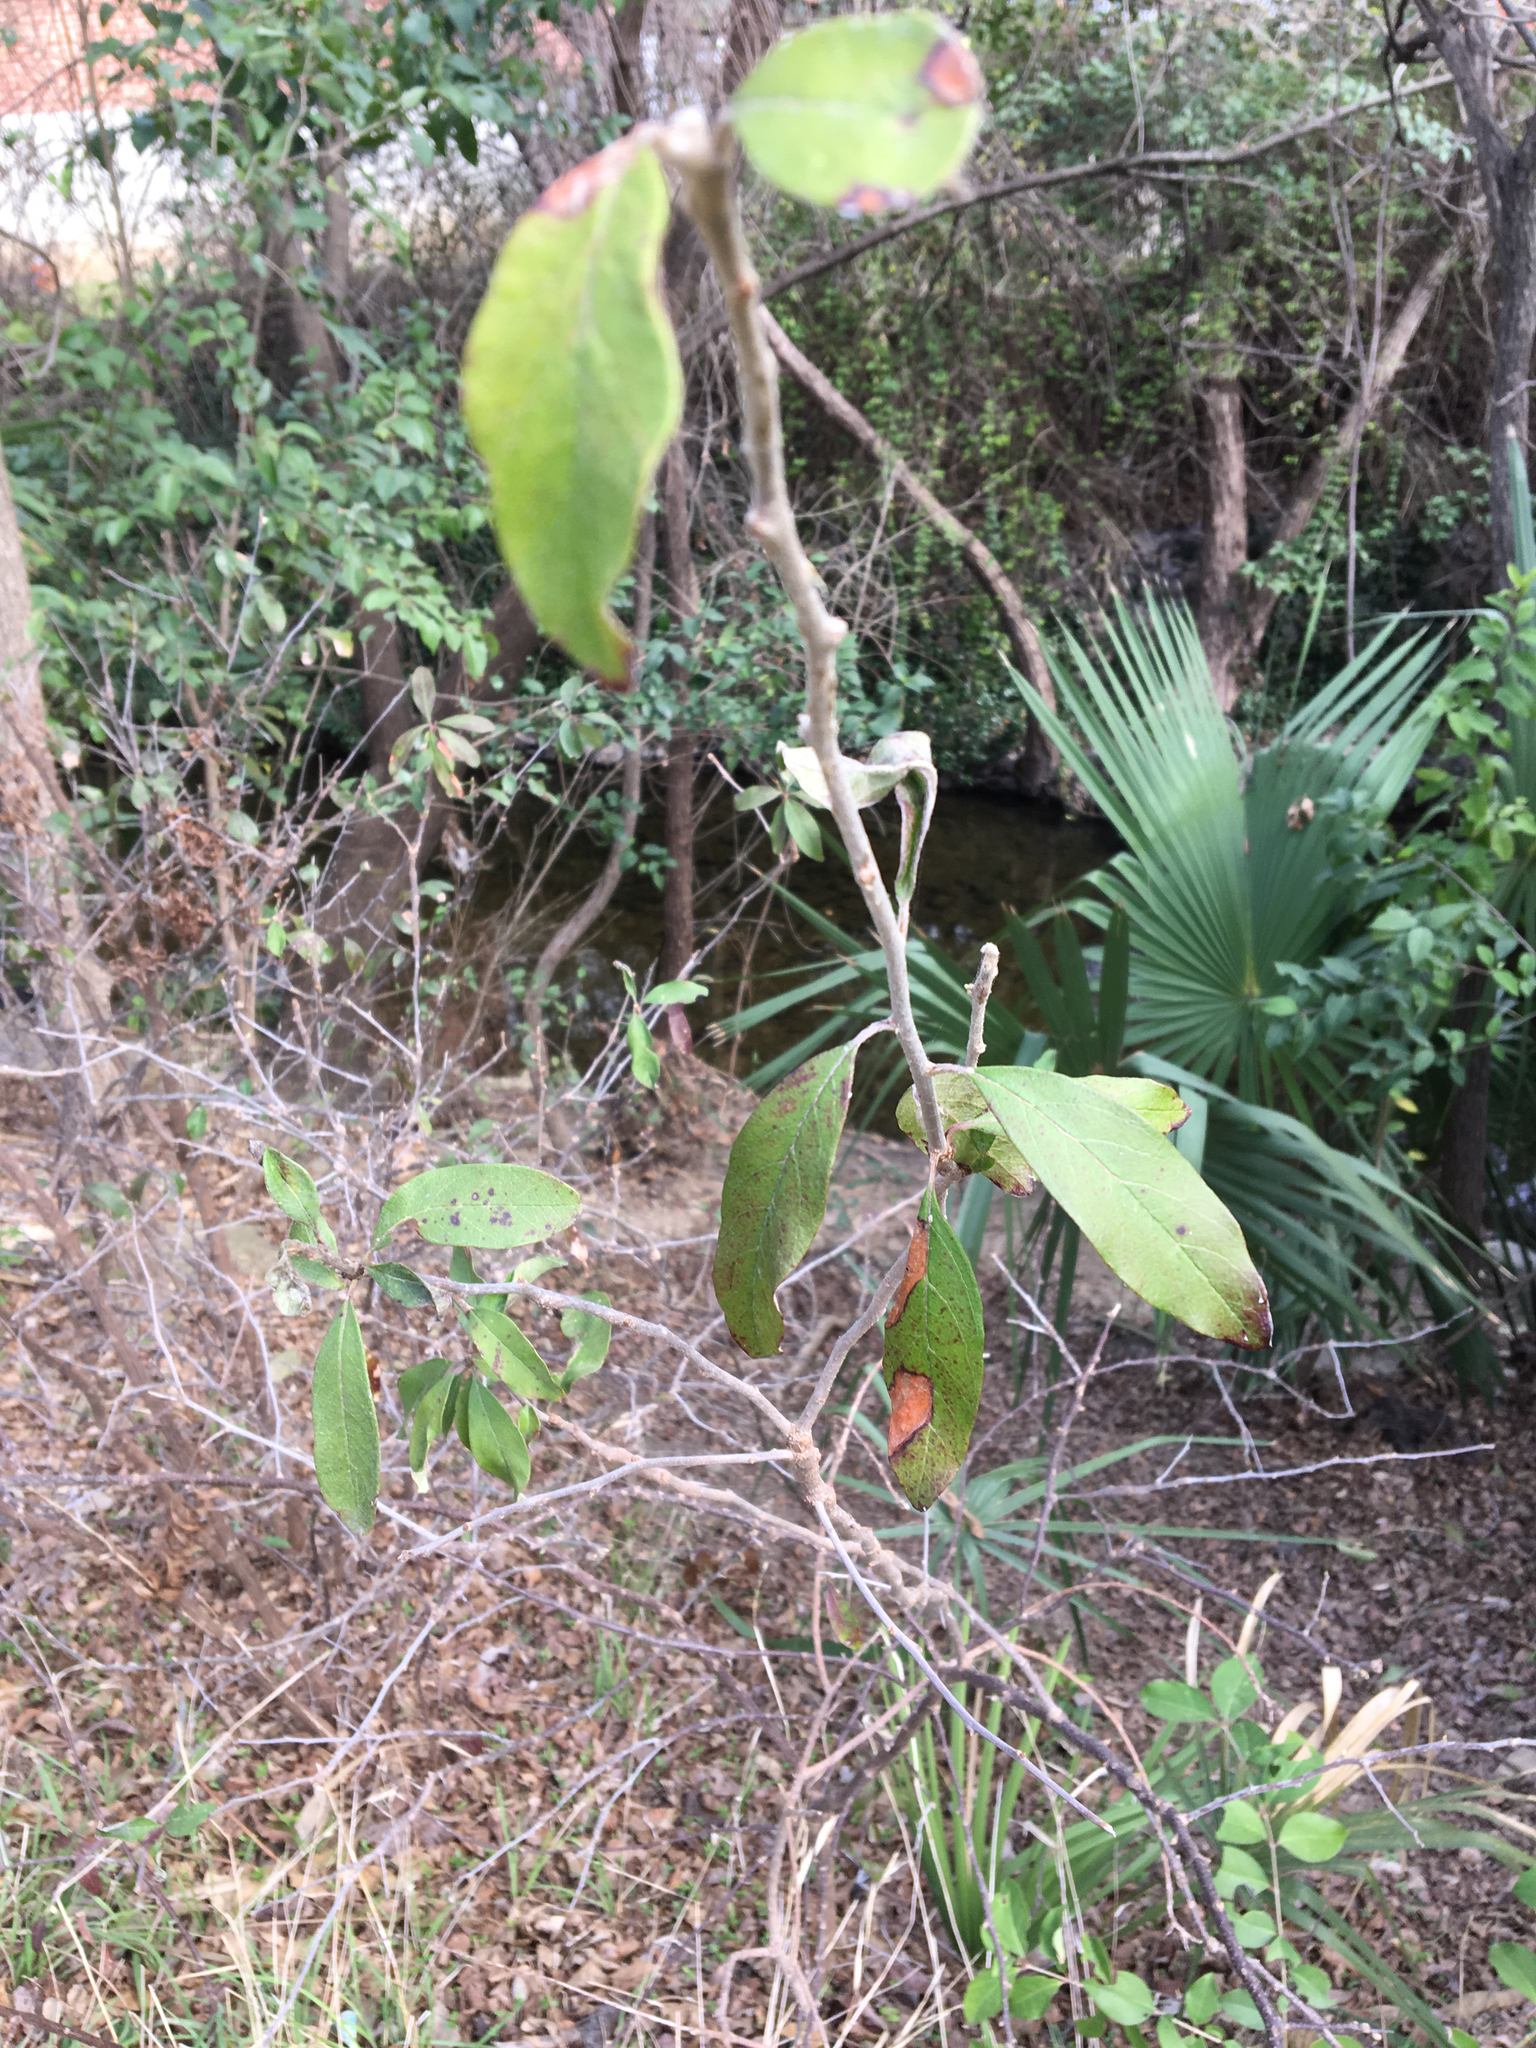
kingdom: Plantae
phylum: Tracheophyta
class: Magnoliopsida
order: Ericales
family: Sapotaceae
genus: Sideroxylon
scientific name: Sideroxylon lanuginosum
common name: Chittamwood
